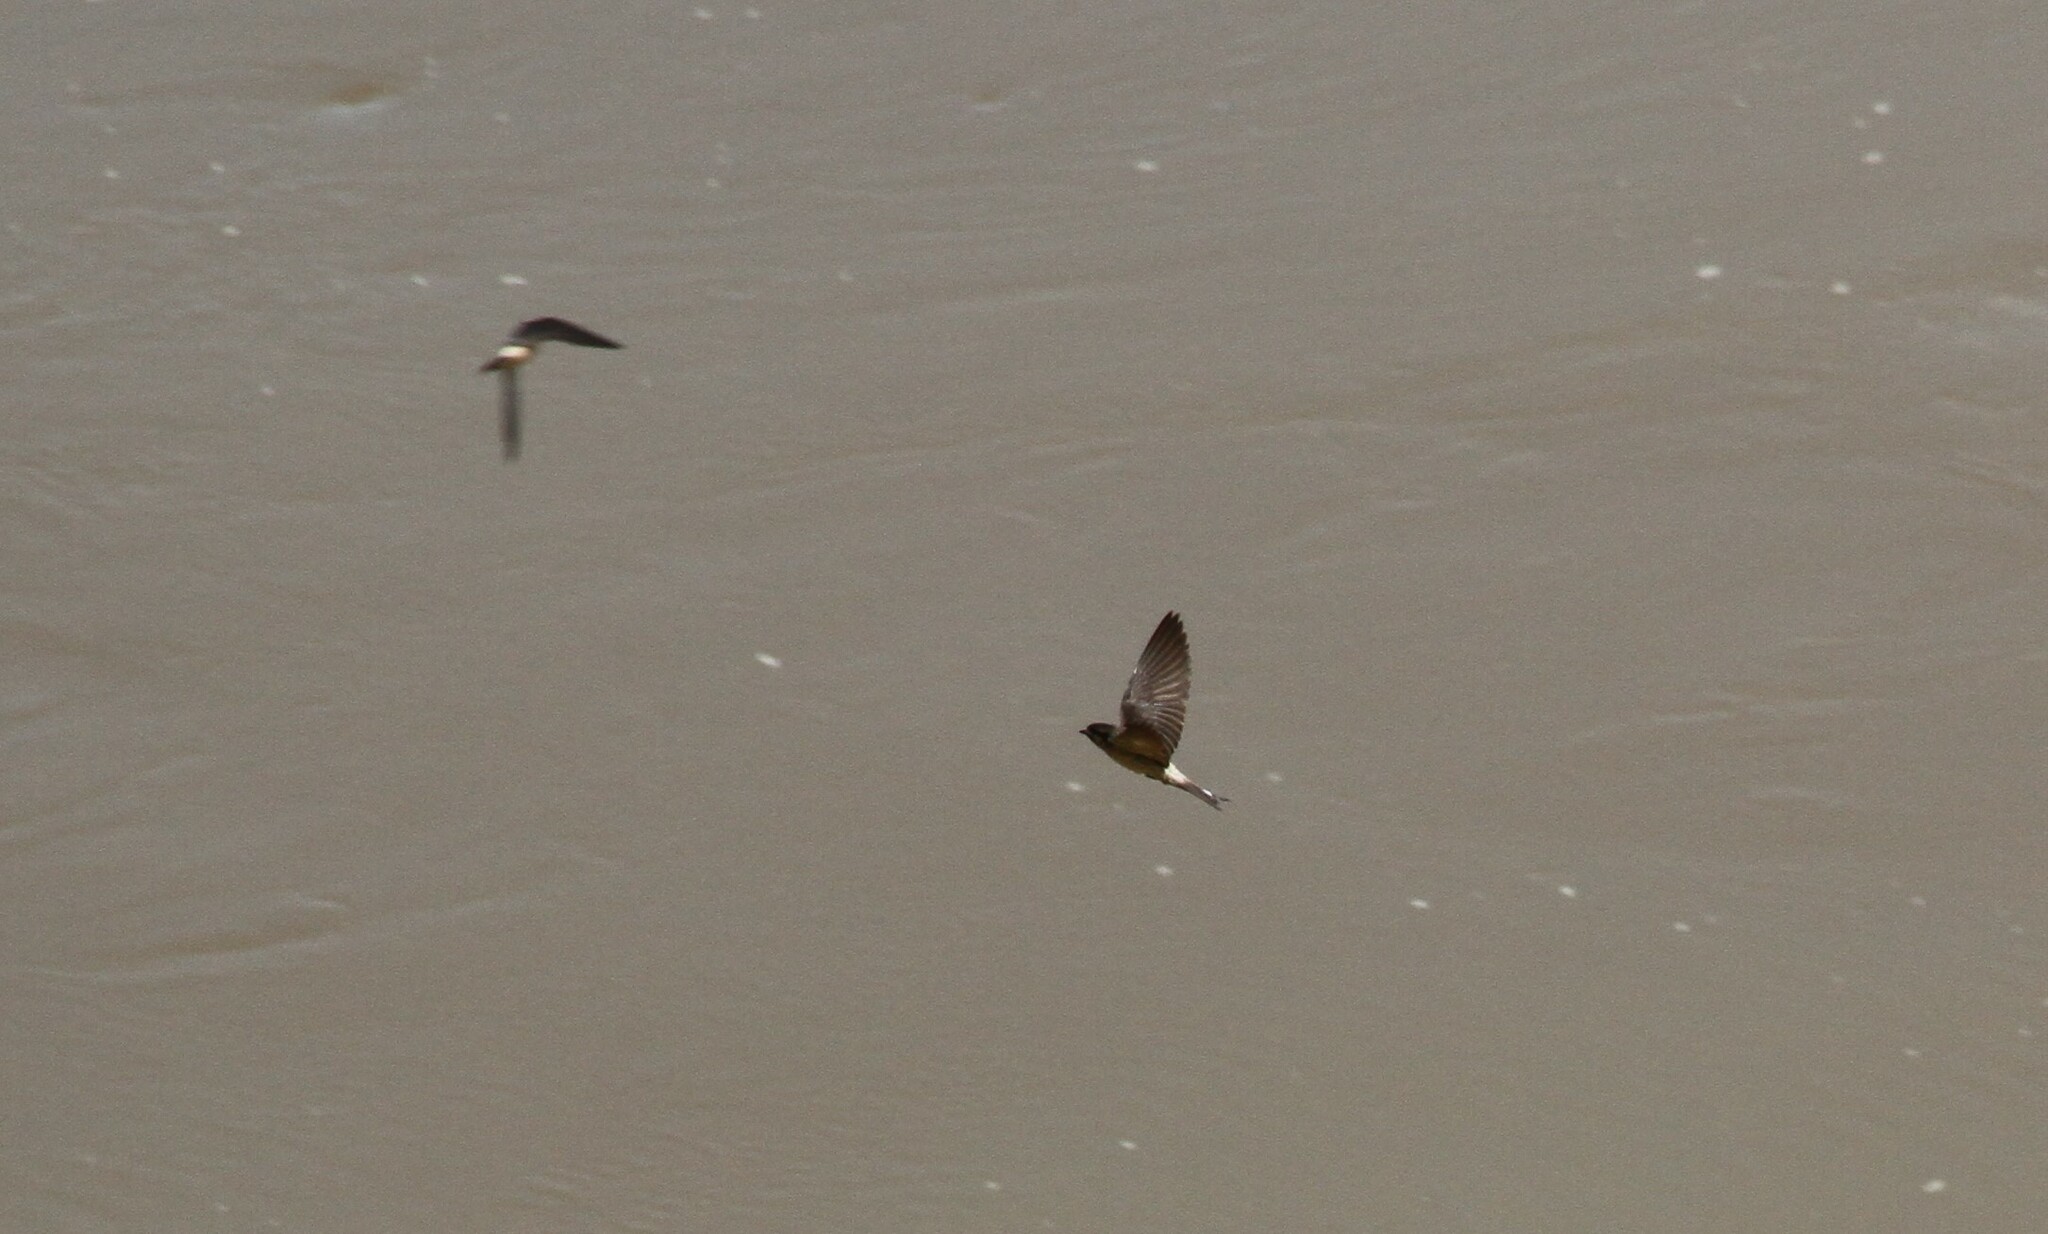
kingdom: Animalia
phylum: Chordata
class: Aves
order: Passeriformes
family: Hirundinidae
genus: Delichon
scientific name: Delichon urbicum
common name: Common house martin
